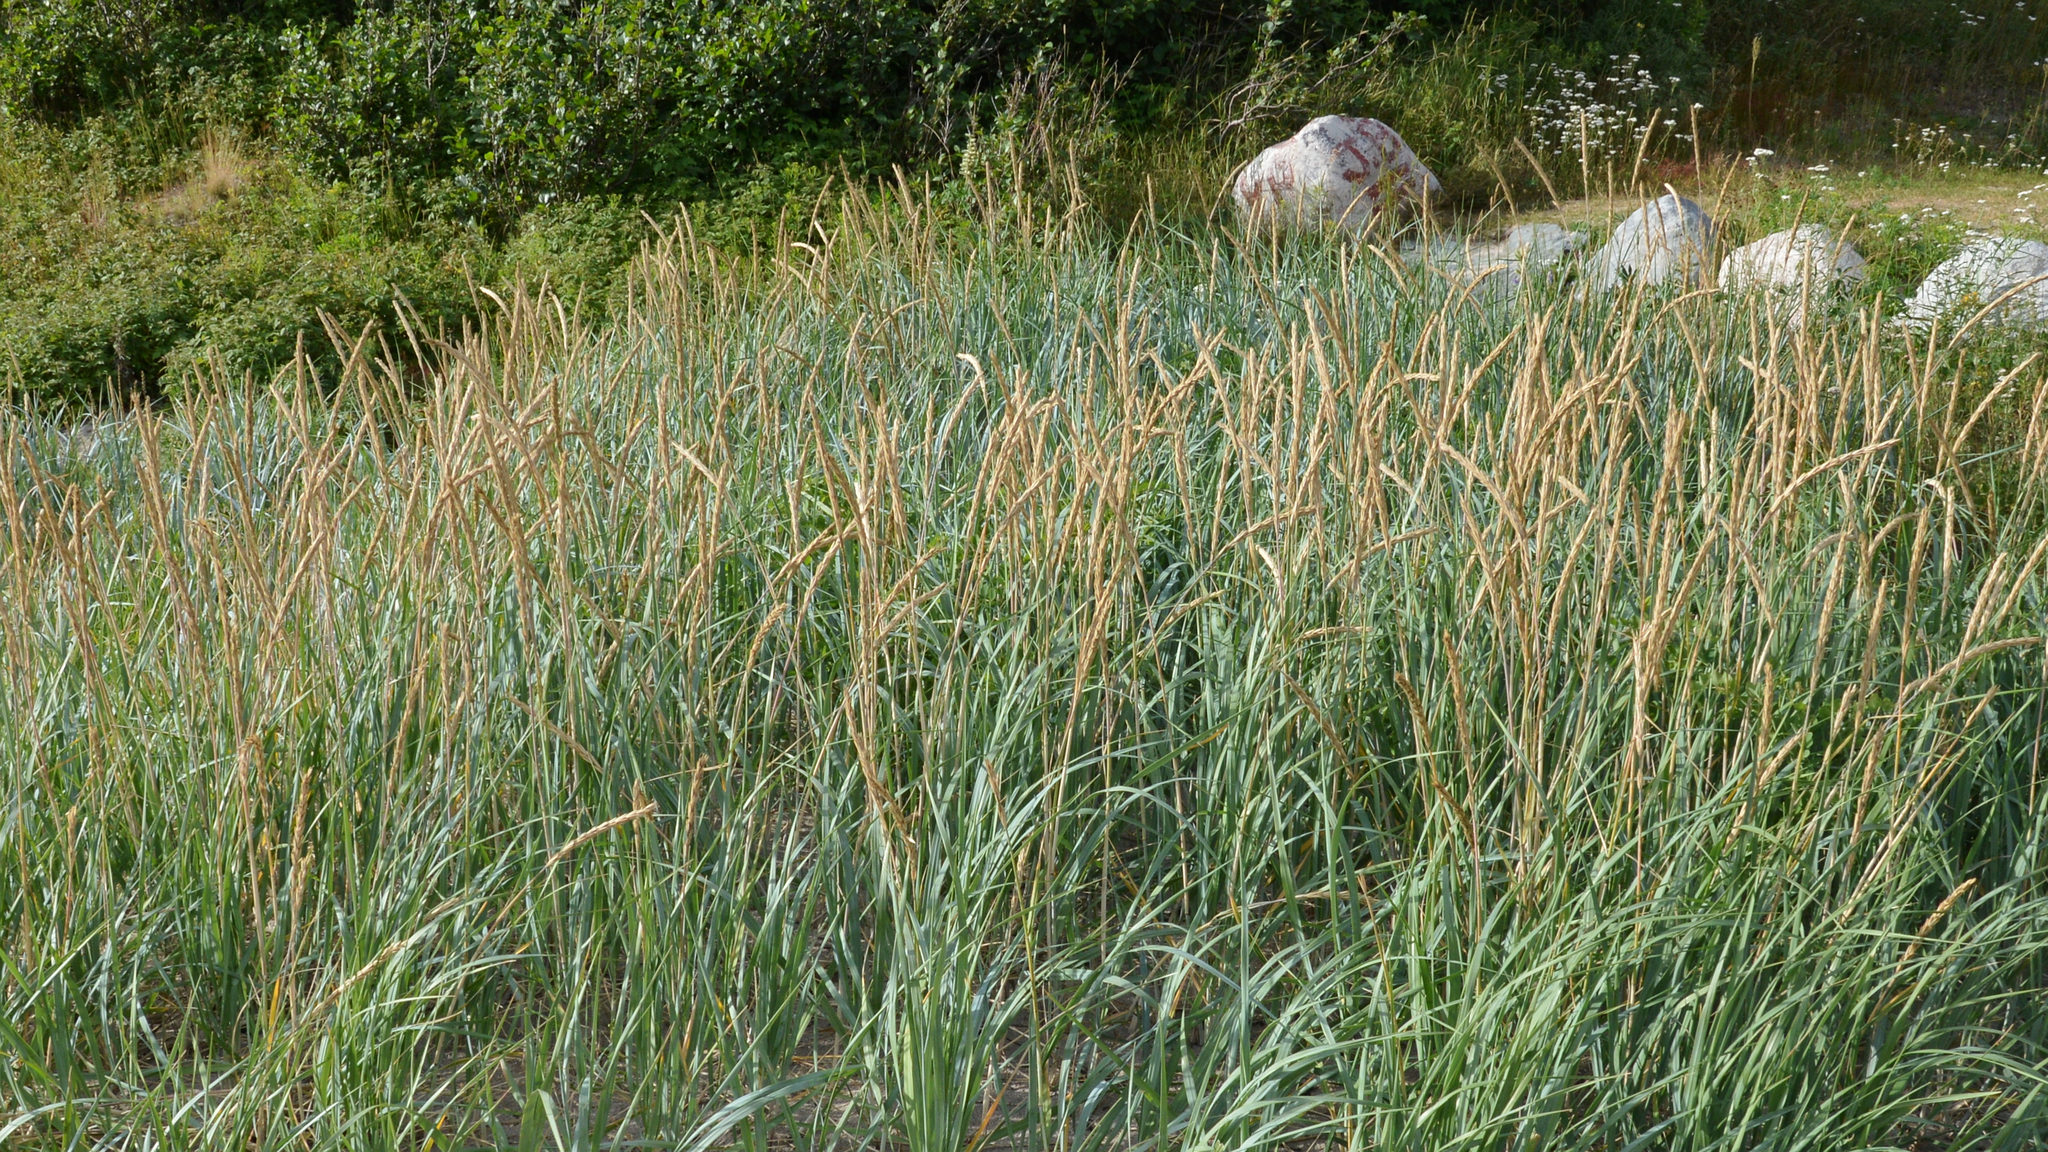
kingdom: Plantae
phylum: Tracheophyta
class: Liliopsida
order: Poales
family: Poaceae
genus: Leymus
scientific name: Leymus mollis
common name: American dune grass
